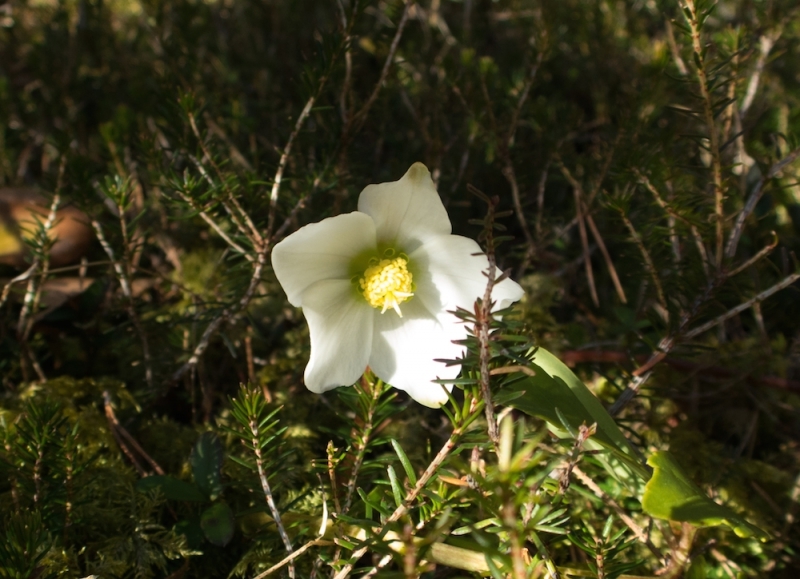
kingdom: Plantae
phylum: Tracheophyta
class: Magnoliopsida
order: Ranunculales
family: Ranunculaceae
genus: Helleborus
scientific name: Helleborus niger
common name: Black hellebore
